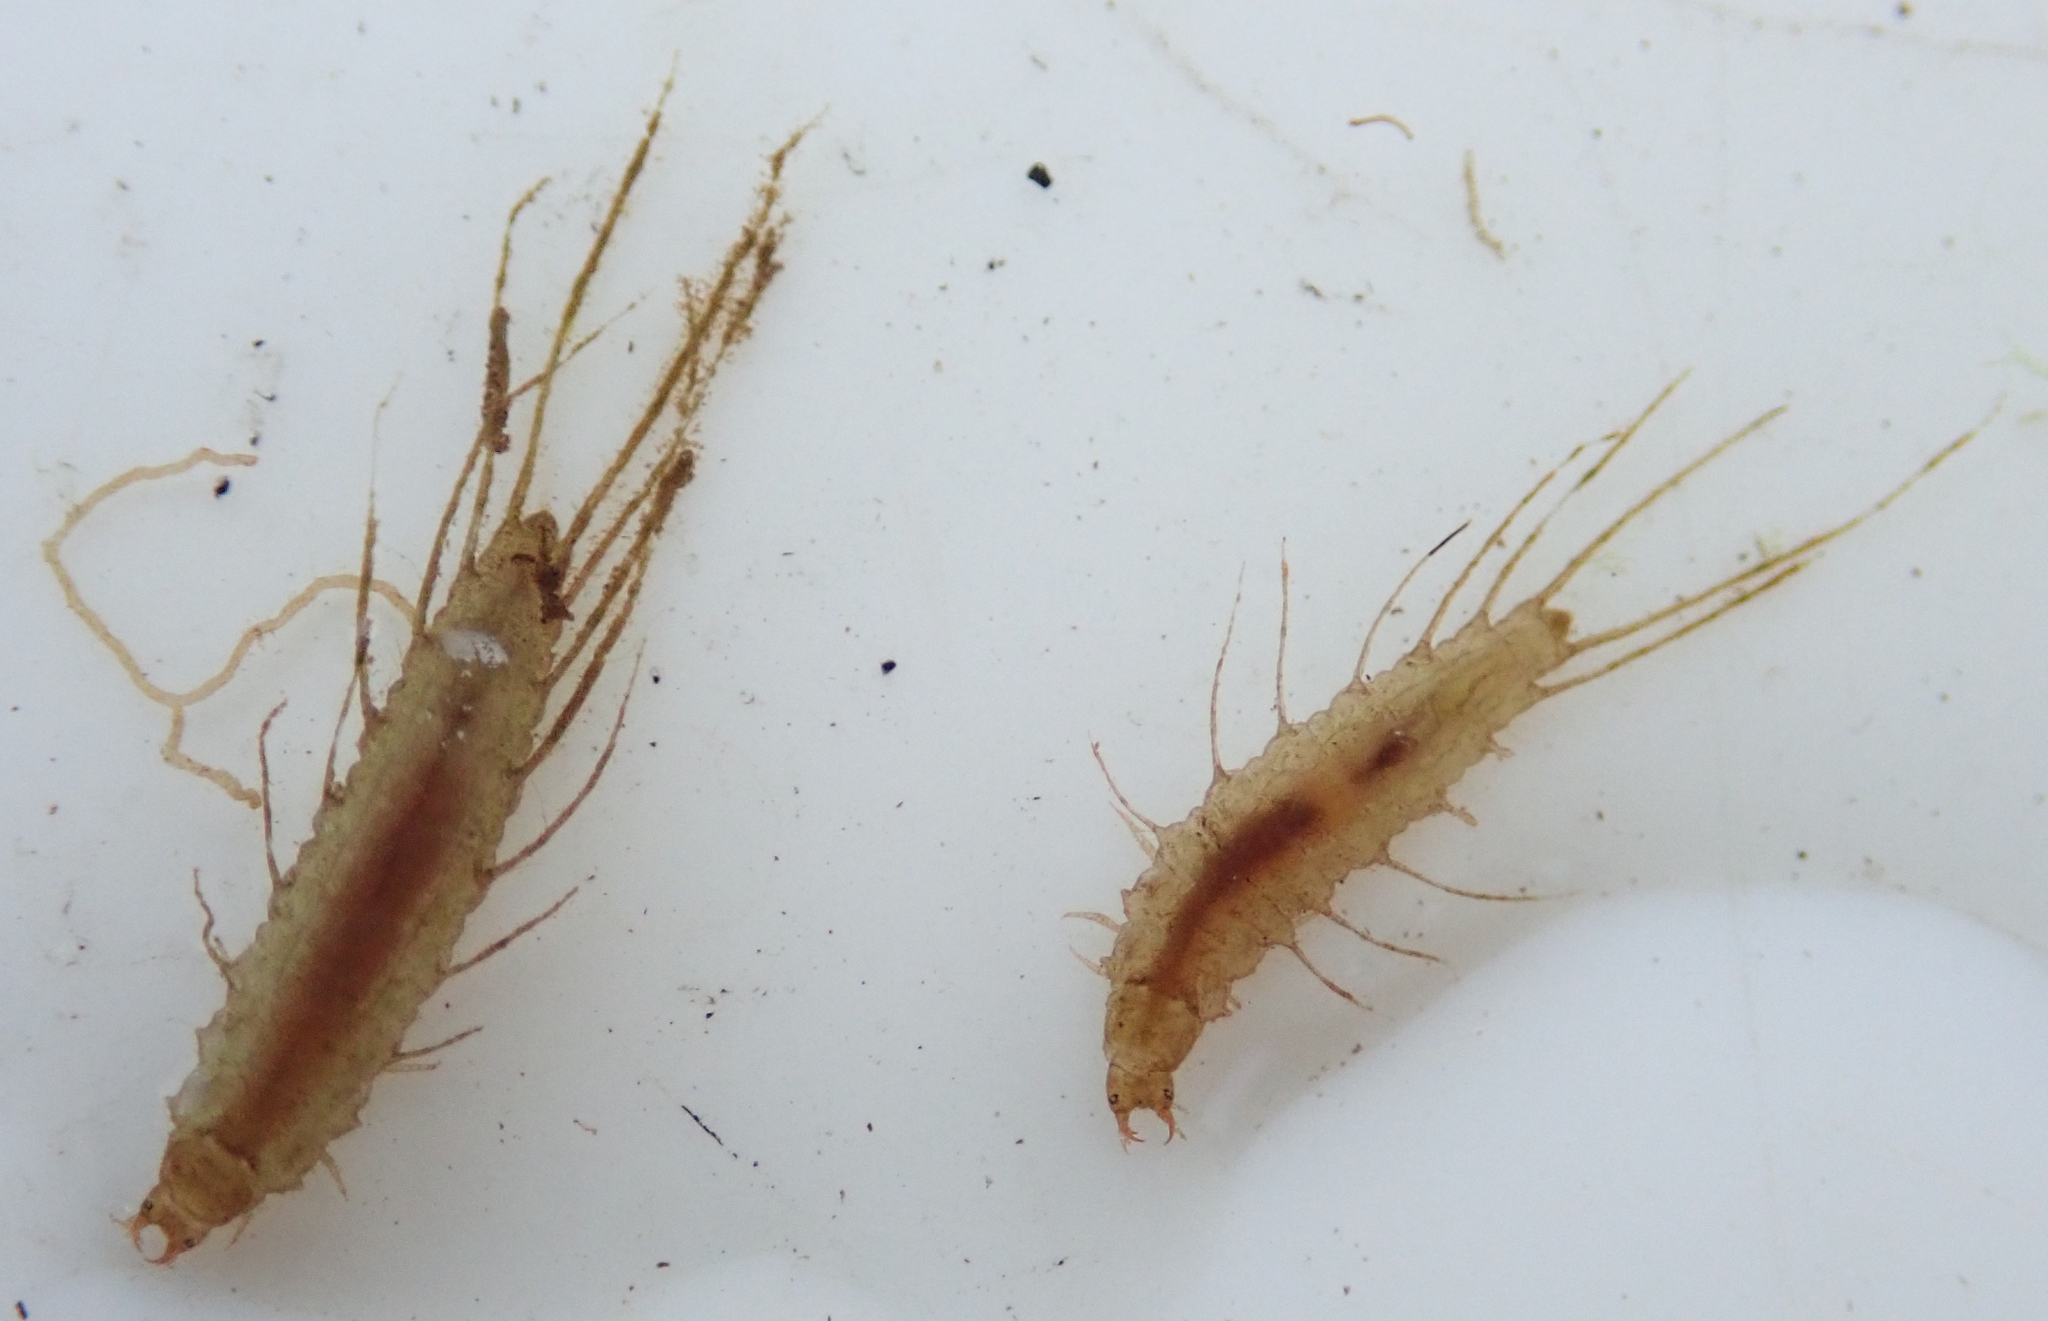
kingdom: Animalia
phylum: Arthropoda
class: Insecta
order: Coleoptera
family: Hydrophilidae
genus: Berosus
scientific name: Berosus
